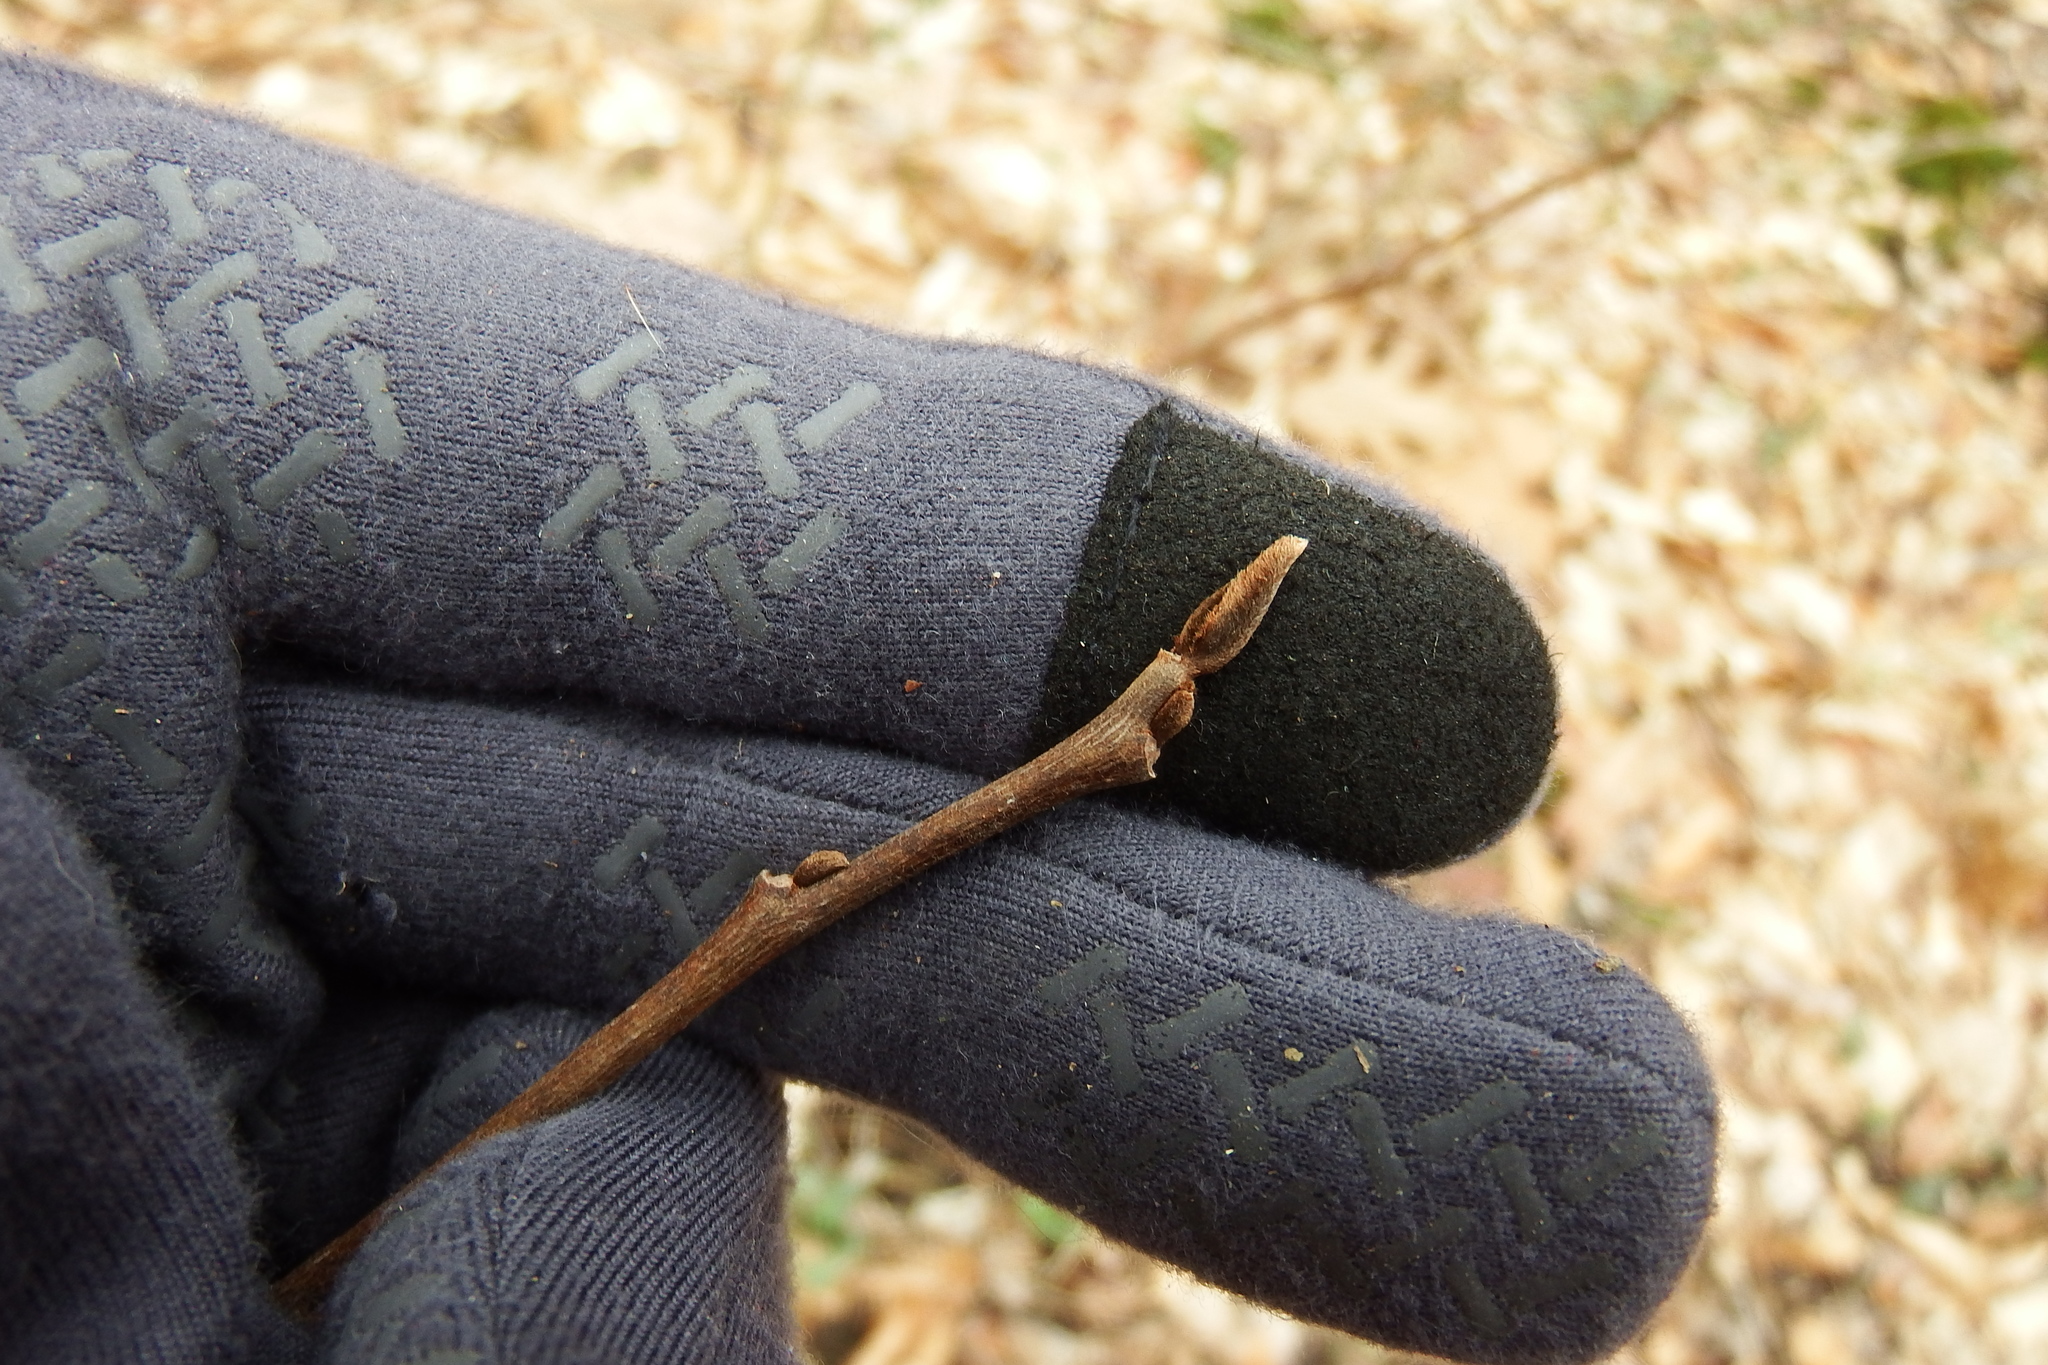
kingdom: Plantae
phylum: Tracheophyta
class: Magnoliopsida
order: Magnoliales
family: Annonaceae
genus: Asimina
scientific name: Asimina triloba
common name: Dog-banana
